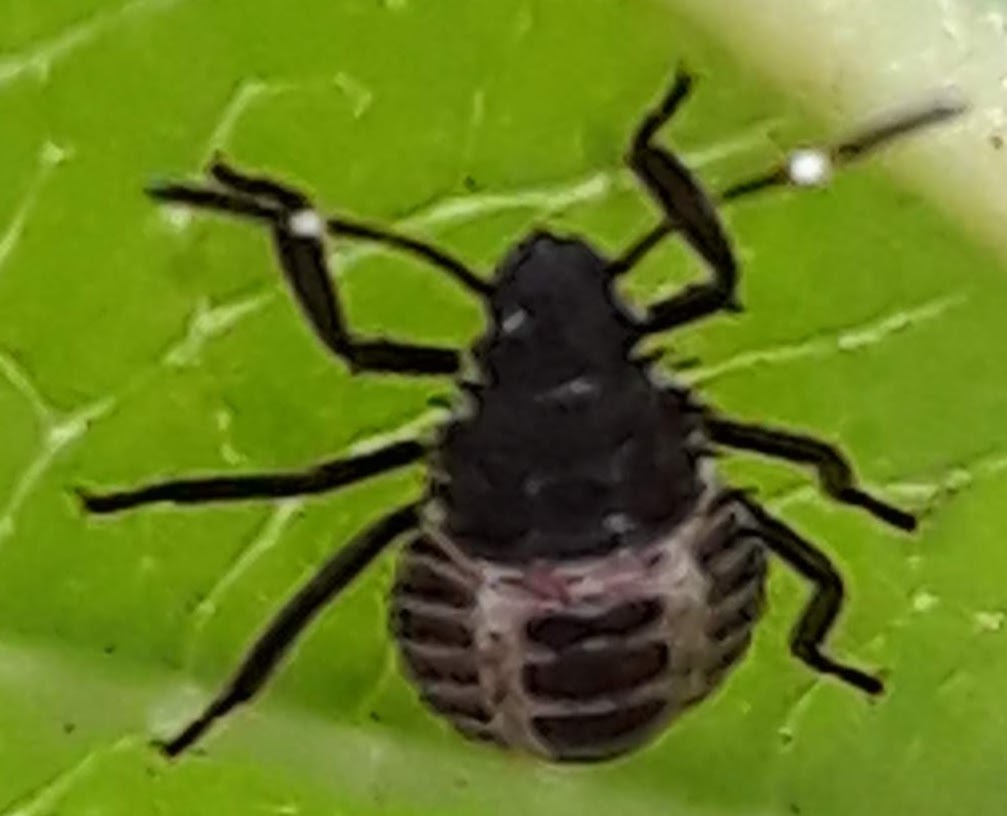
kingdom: Animalia
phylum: Arthropoda
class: Insecta
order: Hemiptera
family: Pentatomidae
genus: Halyomorpha
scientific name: Halyomorpha halys
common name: Brown marmorated stink bug
